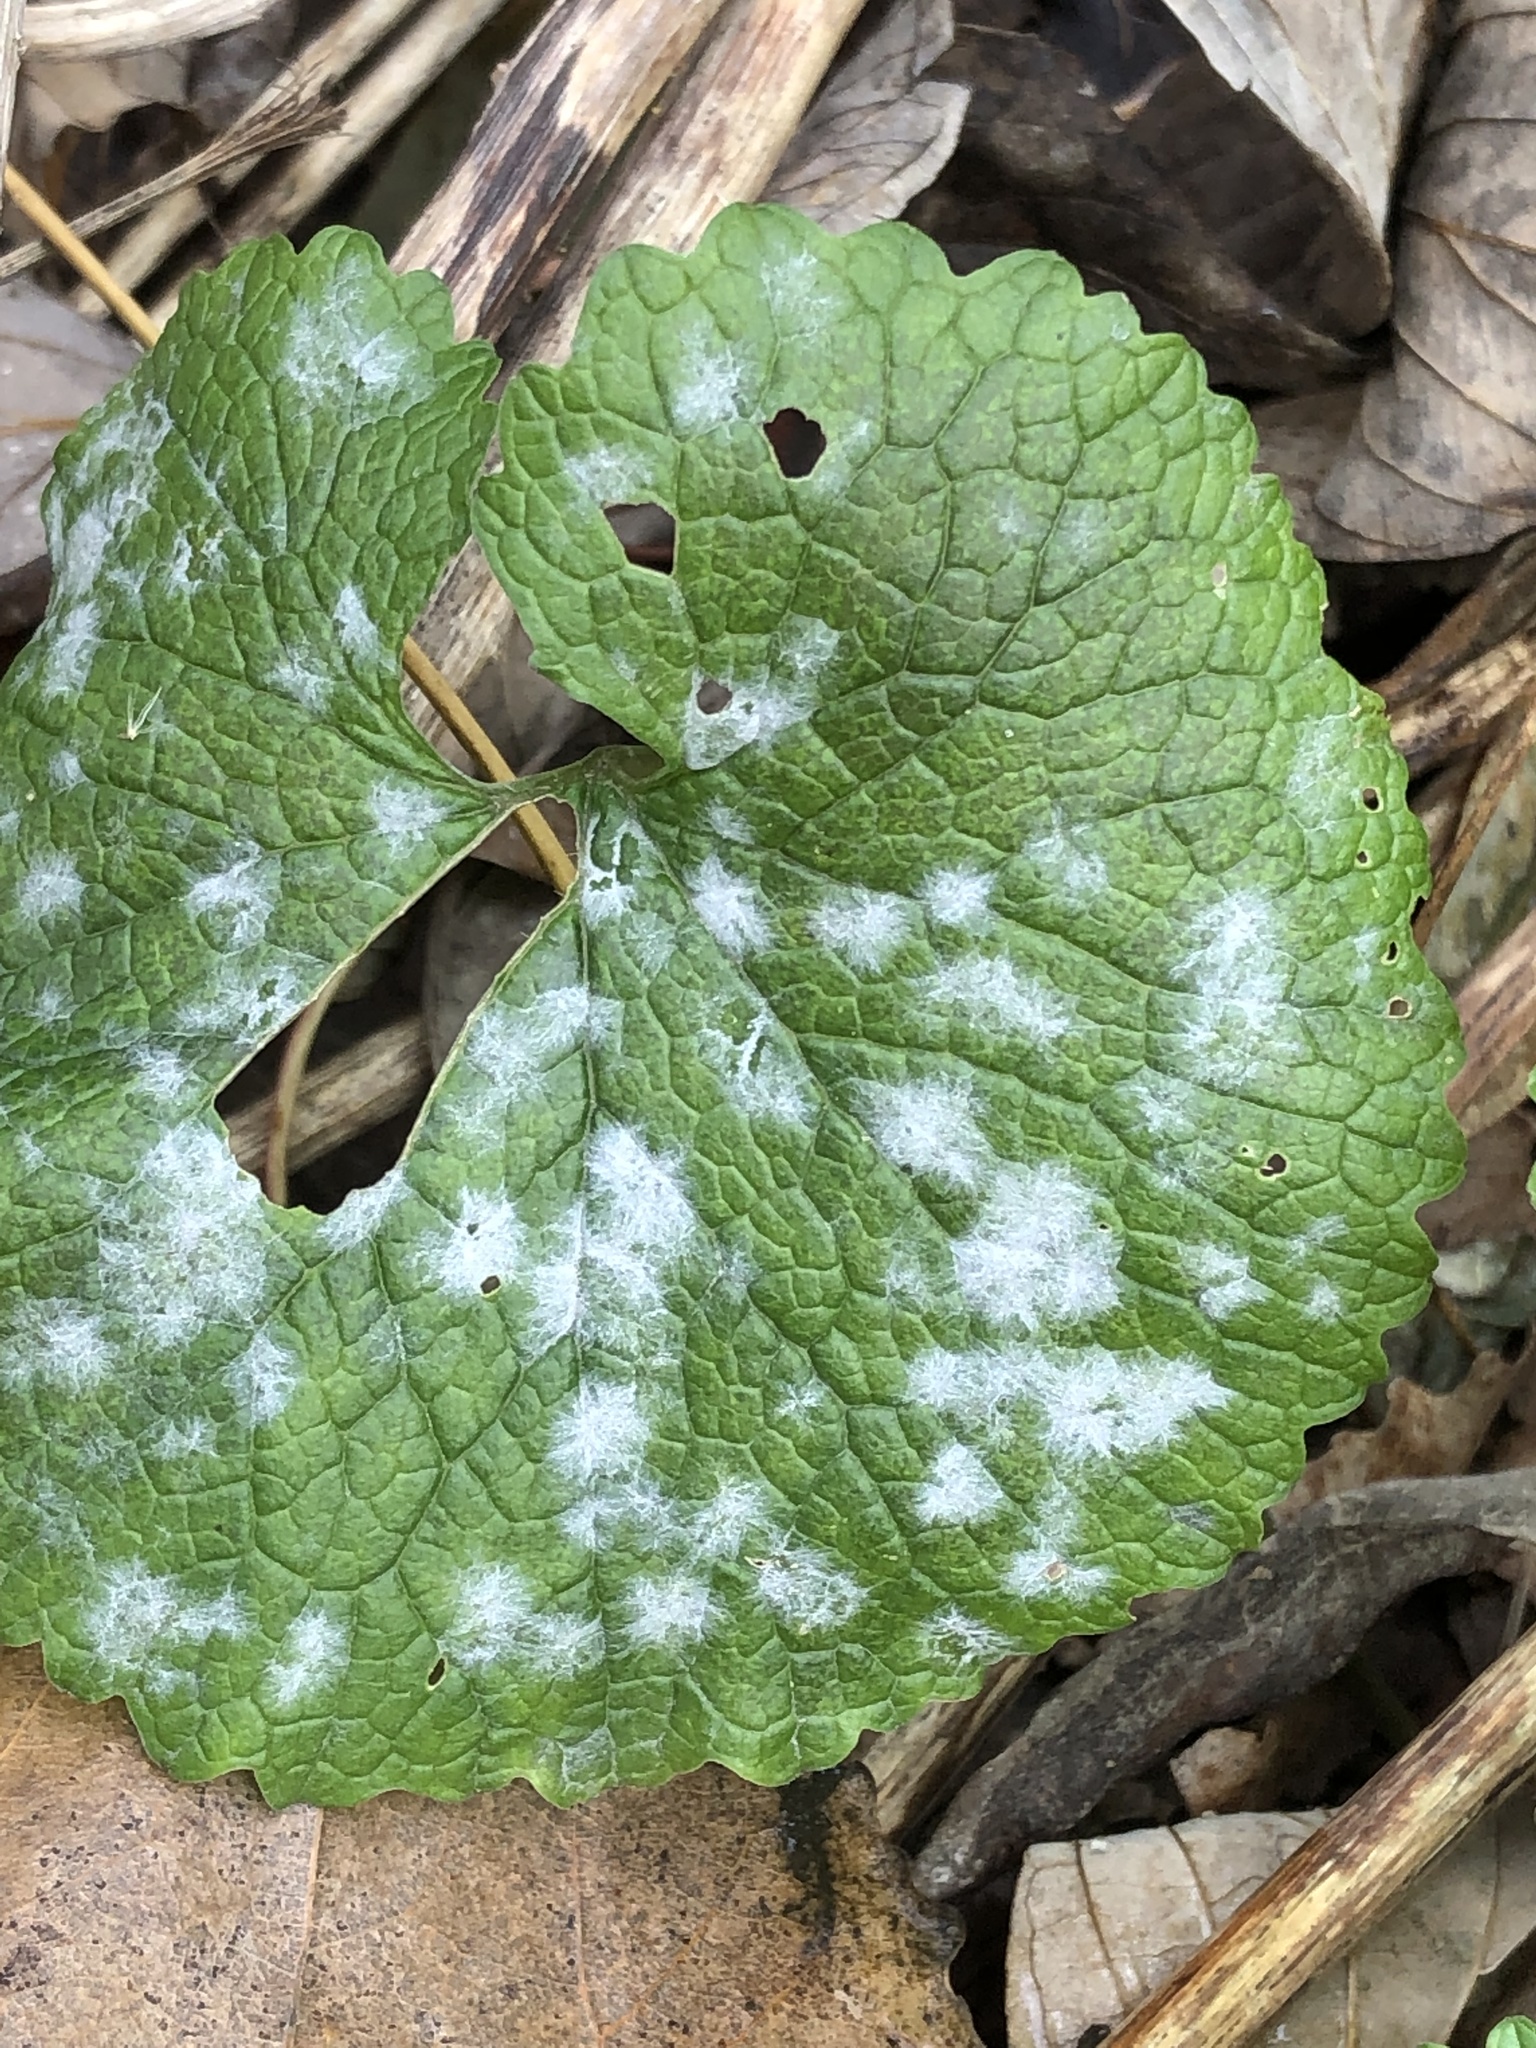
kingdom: Fungi
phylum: Ascomycota
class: Leotiomycetes
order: Helotiales
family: Erysiphaceae
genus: Erysiphe
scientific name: Erysiphe cruciferarum
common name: Brassica powdery mildew
